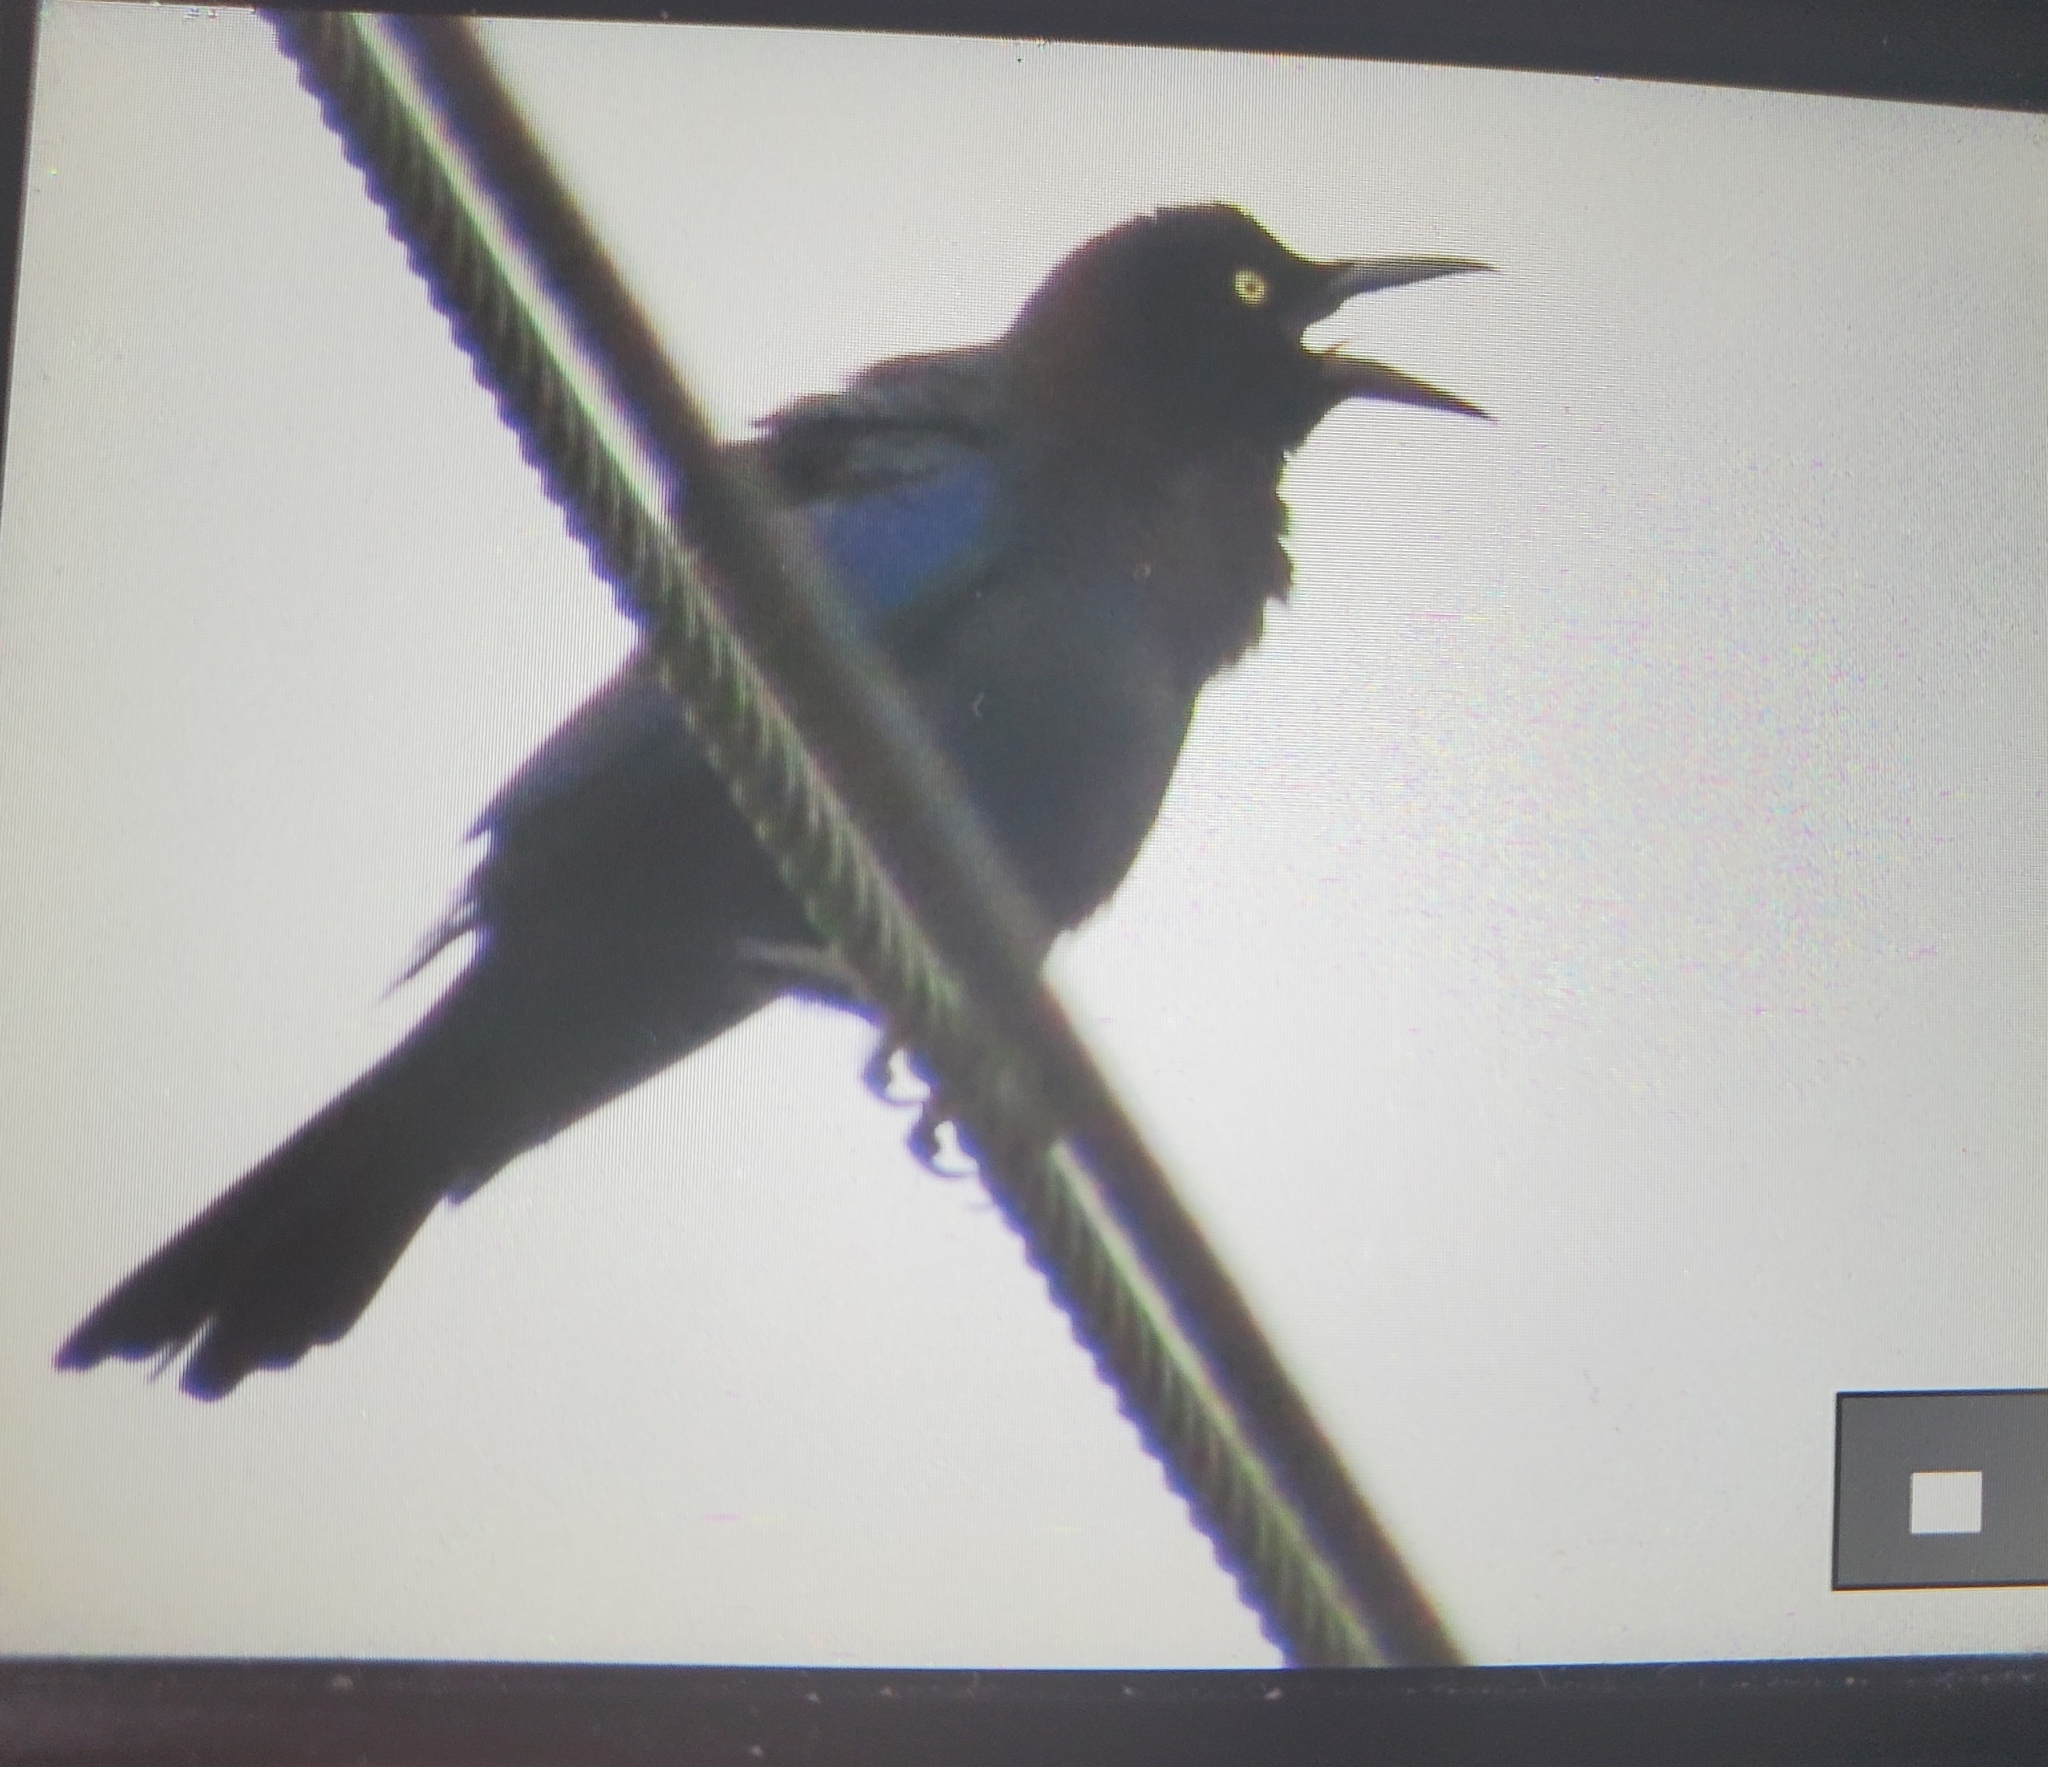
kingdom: Animalia
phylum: Chordata
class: Aves
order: Passeriformes
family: Icteridae
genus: Quiscalus
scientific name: Quiscalus quiscula
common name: Common grackle
